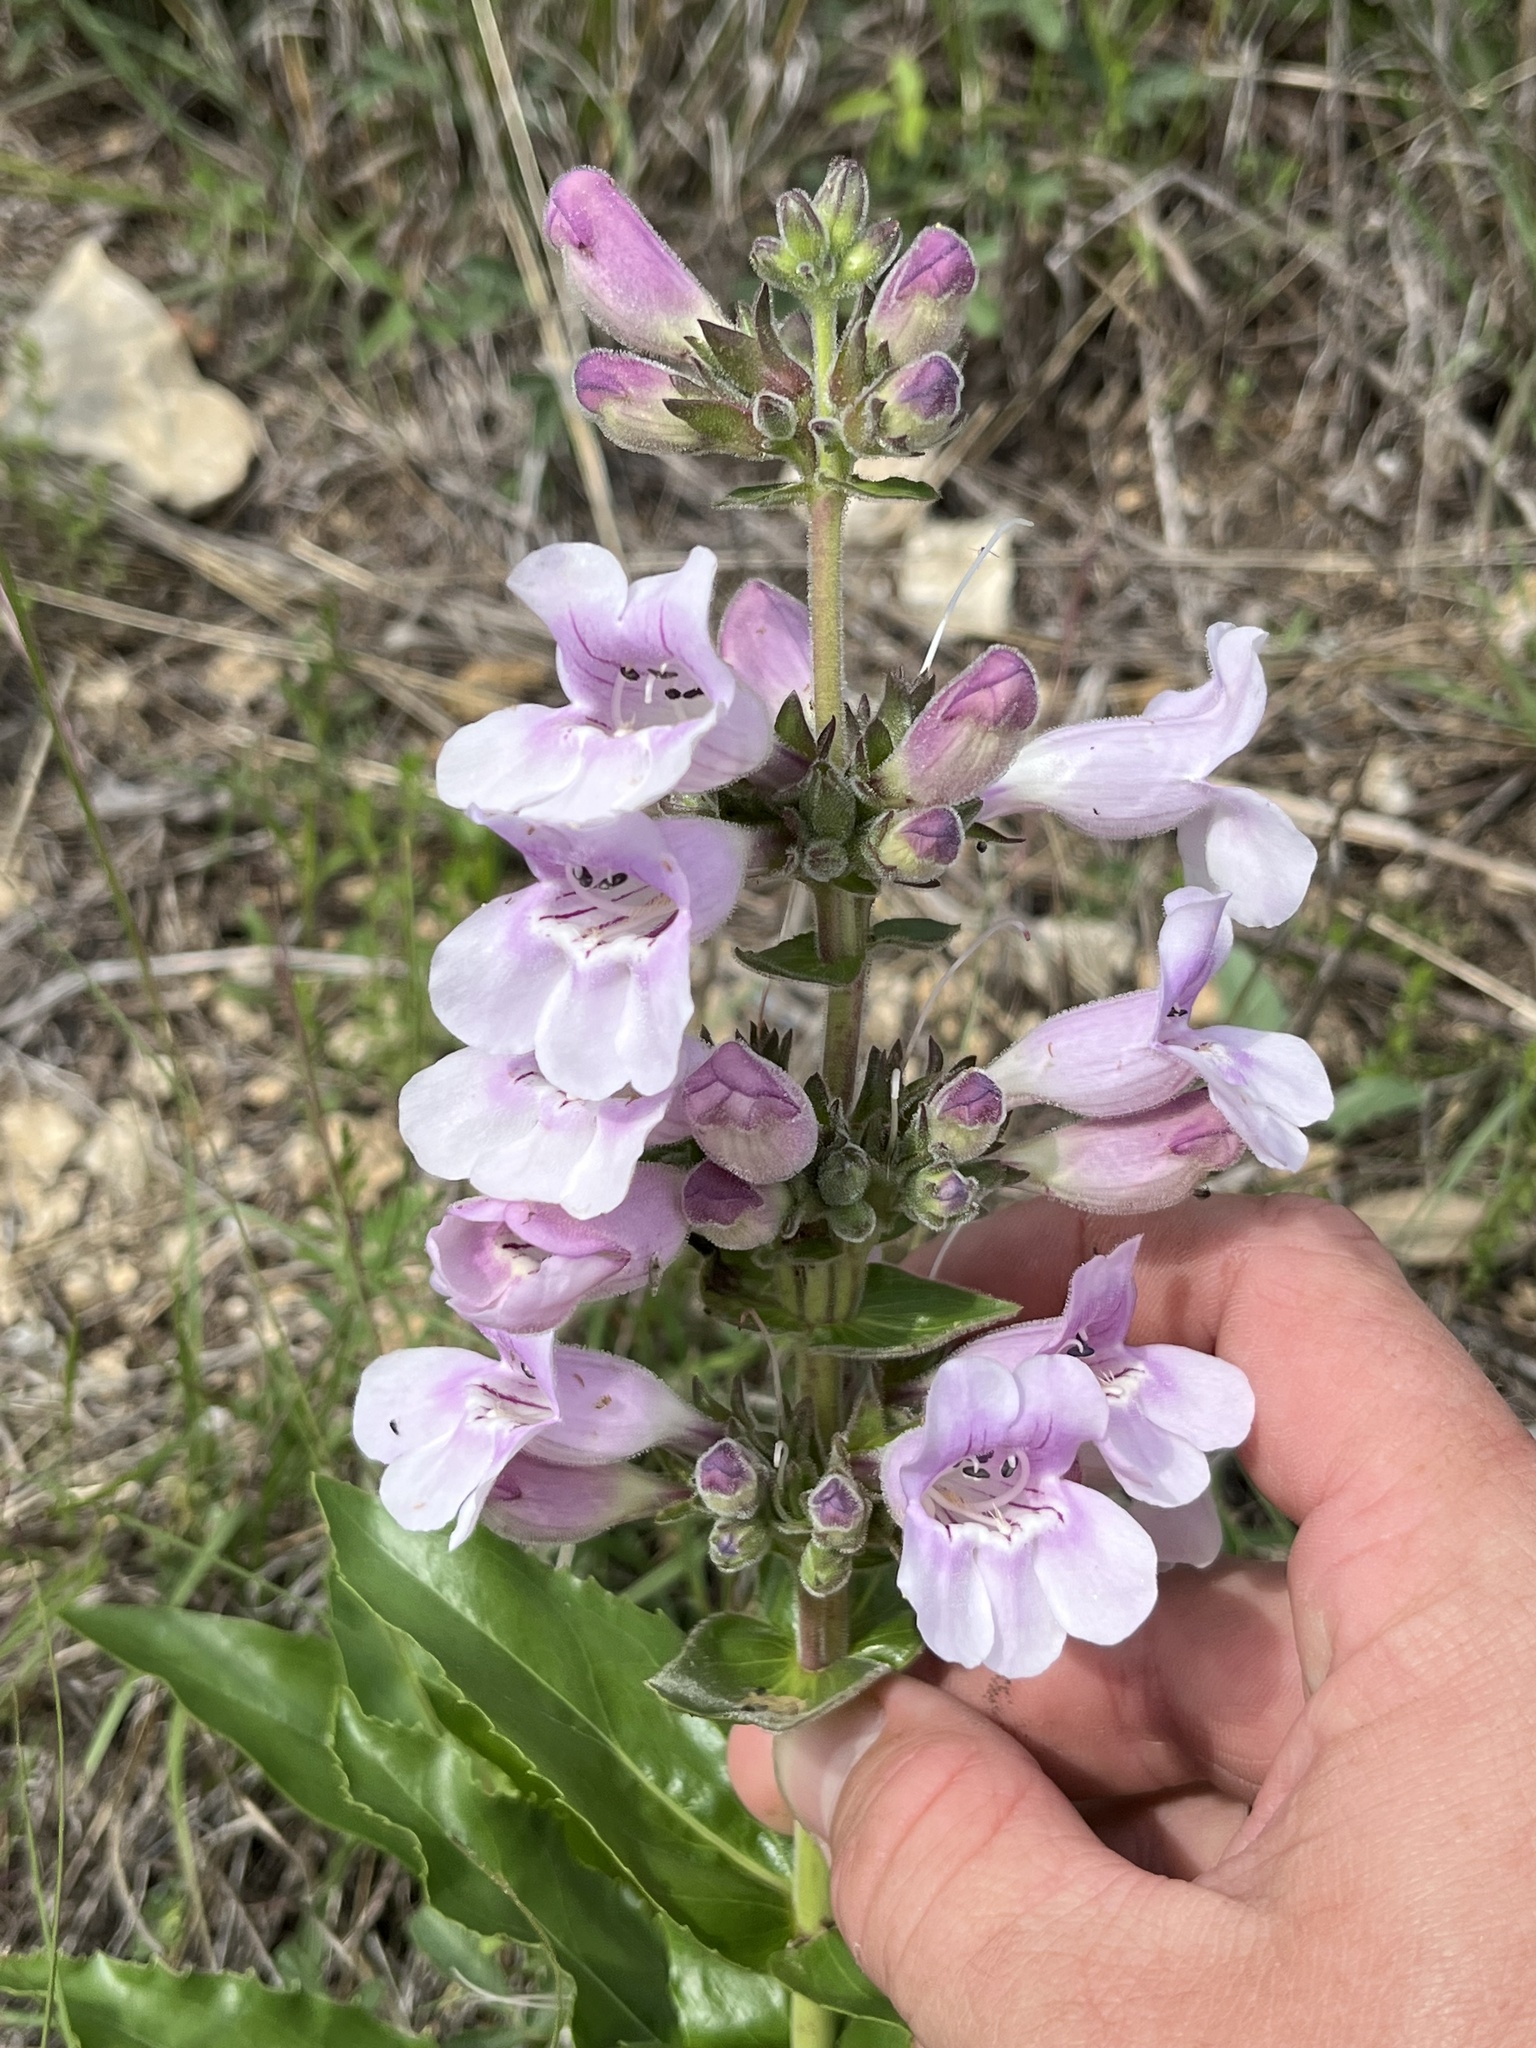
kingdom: Plantae
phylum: Tracheophyta
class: Magnoliopsida
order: Lamiales
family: Plantaginaceae
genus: Penstemon
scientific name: Penstemon cobaea
